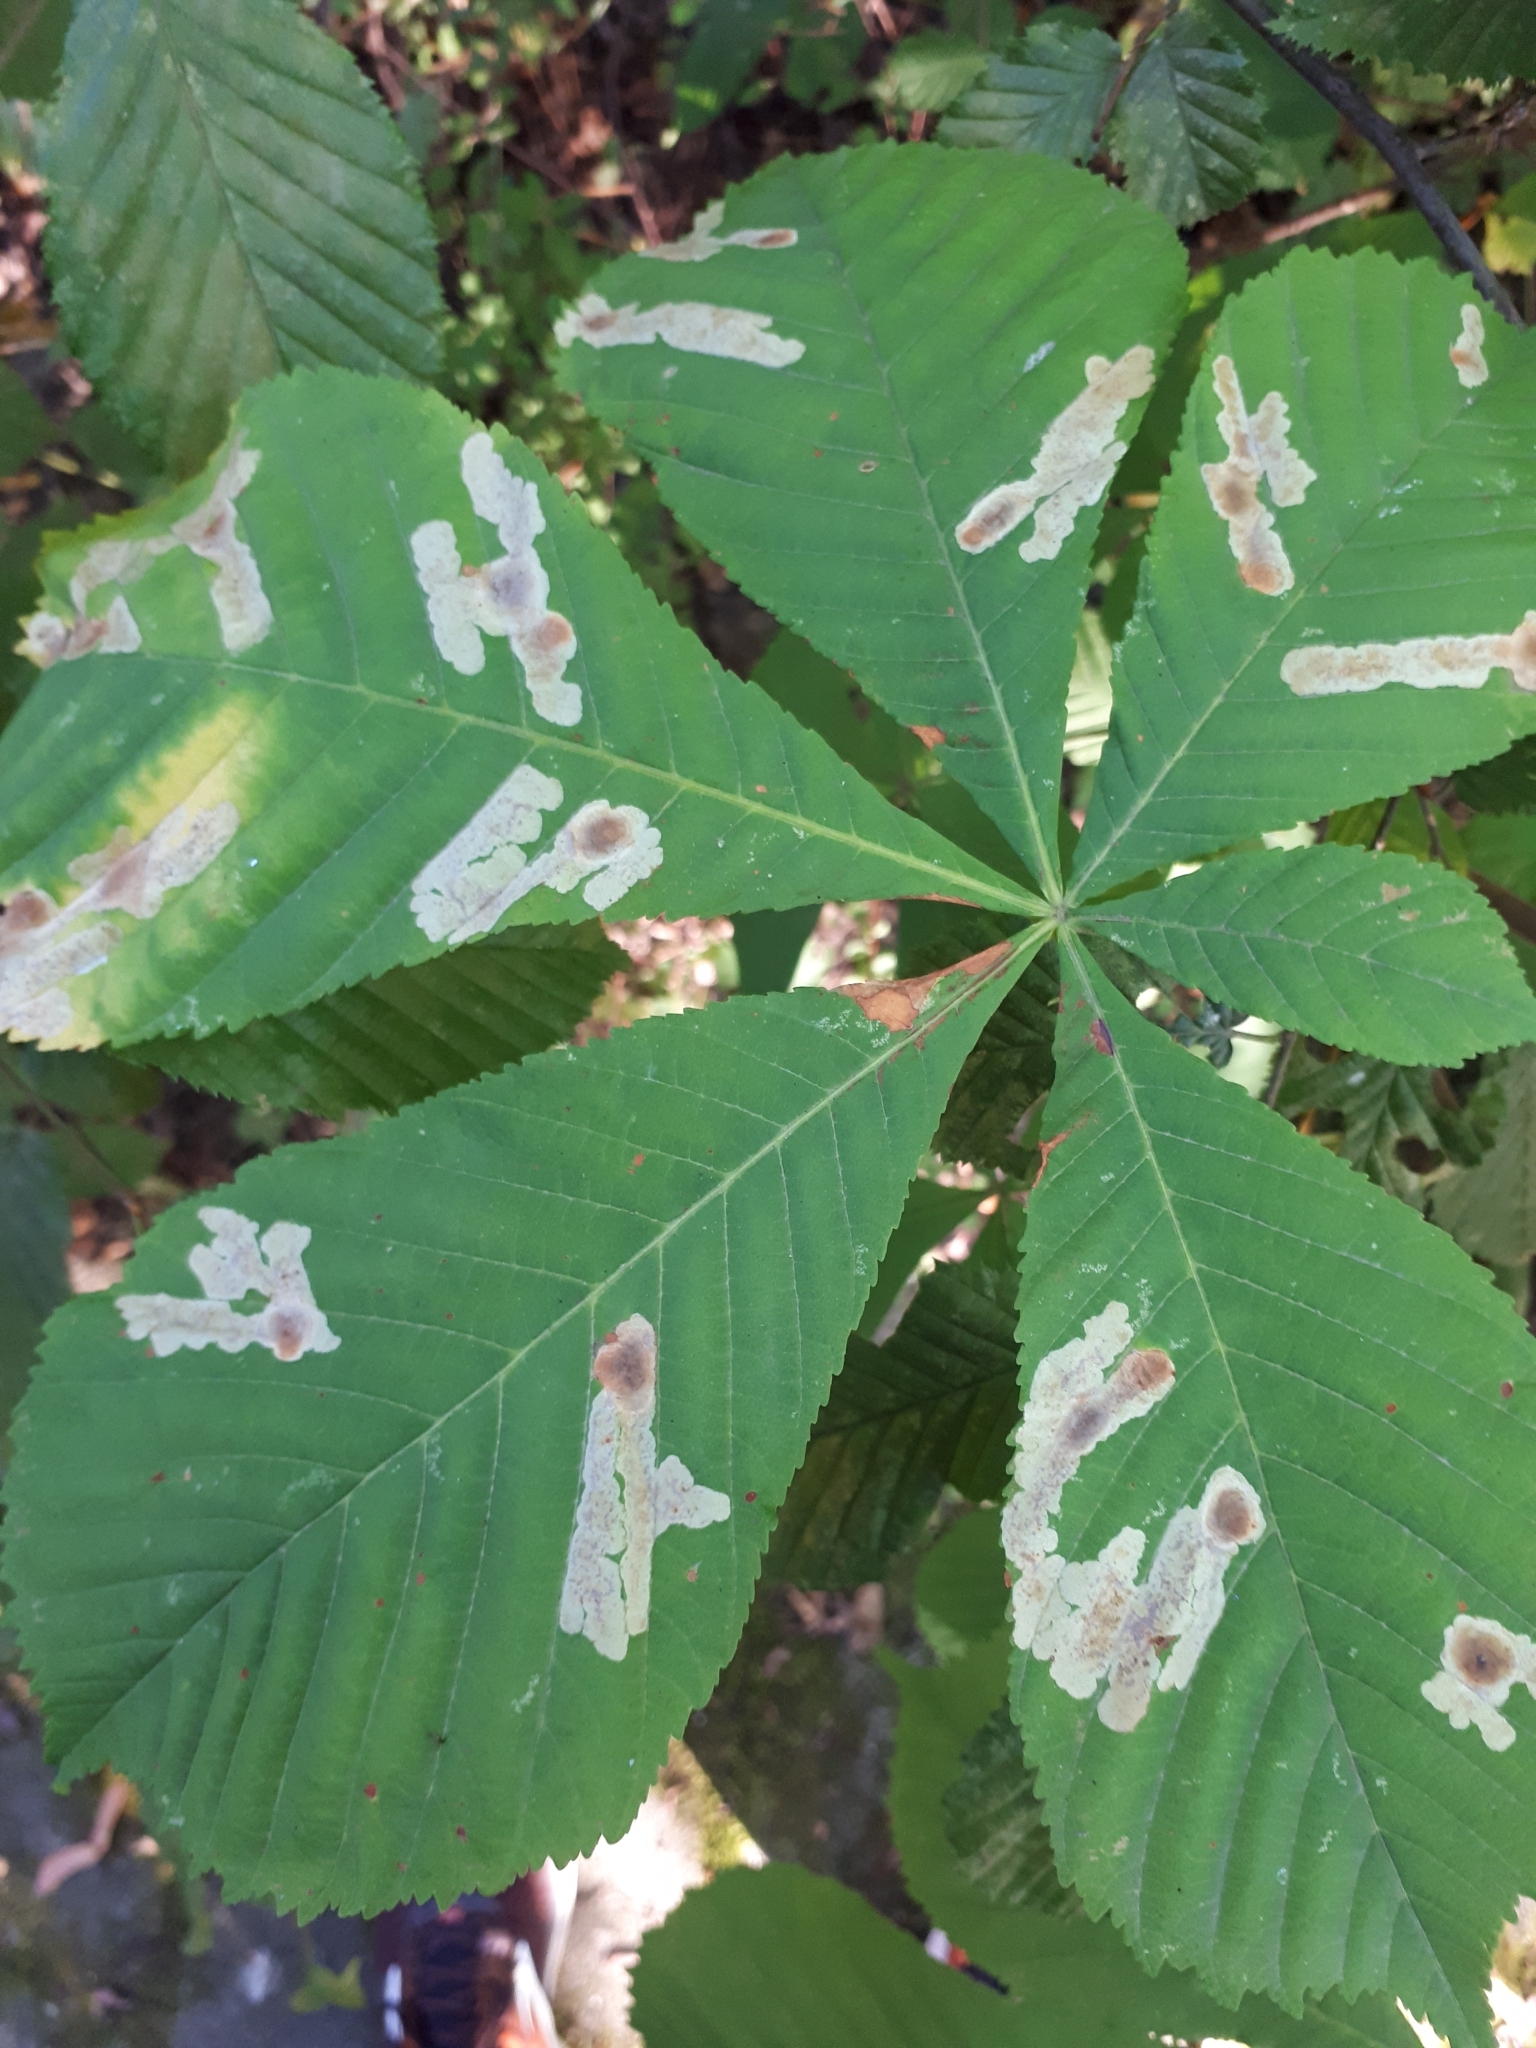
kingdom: Animalia
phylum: Arthropoda
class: Insecta
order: Lepidoptera
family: Gracillariidae
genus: Cameraria
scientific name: Cameraria ohridella
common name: Horse-chestnut leaf-miner
